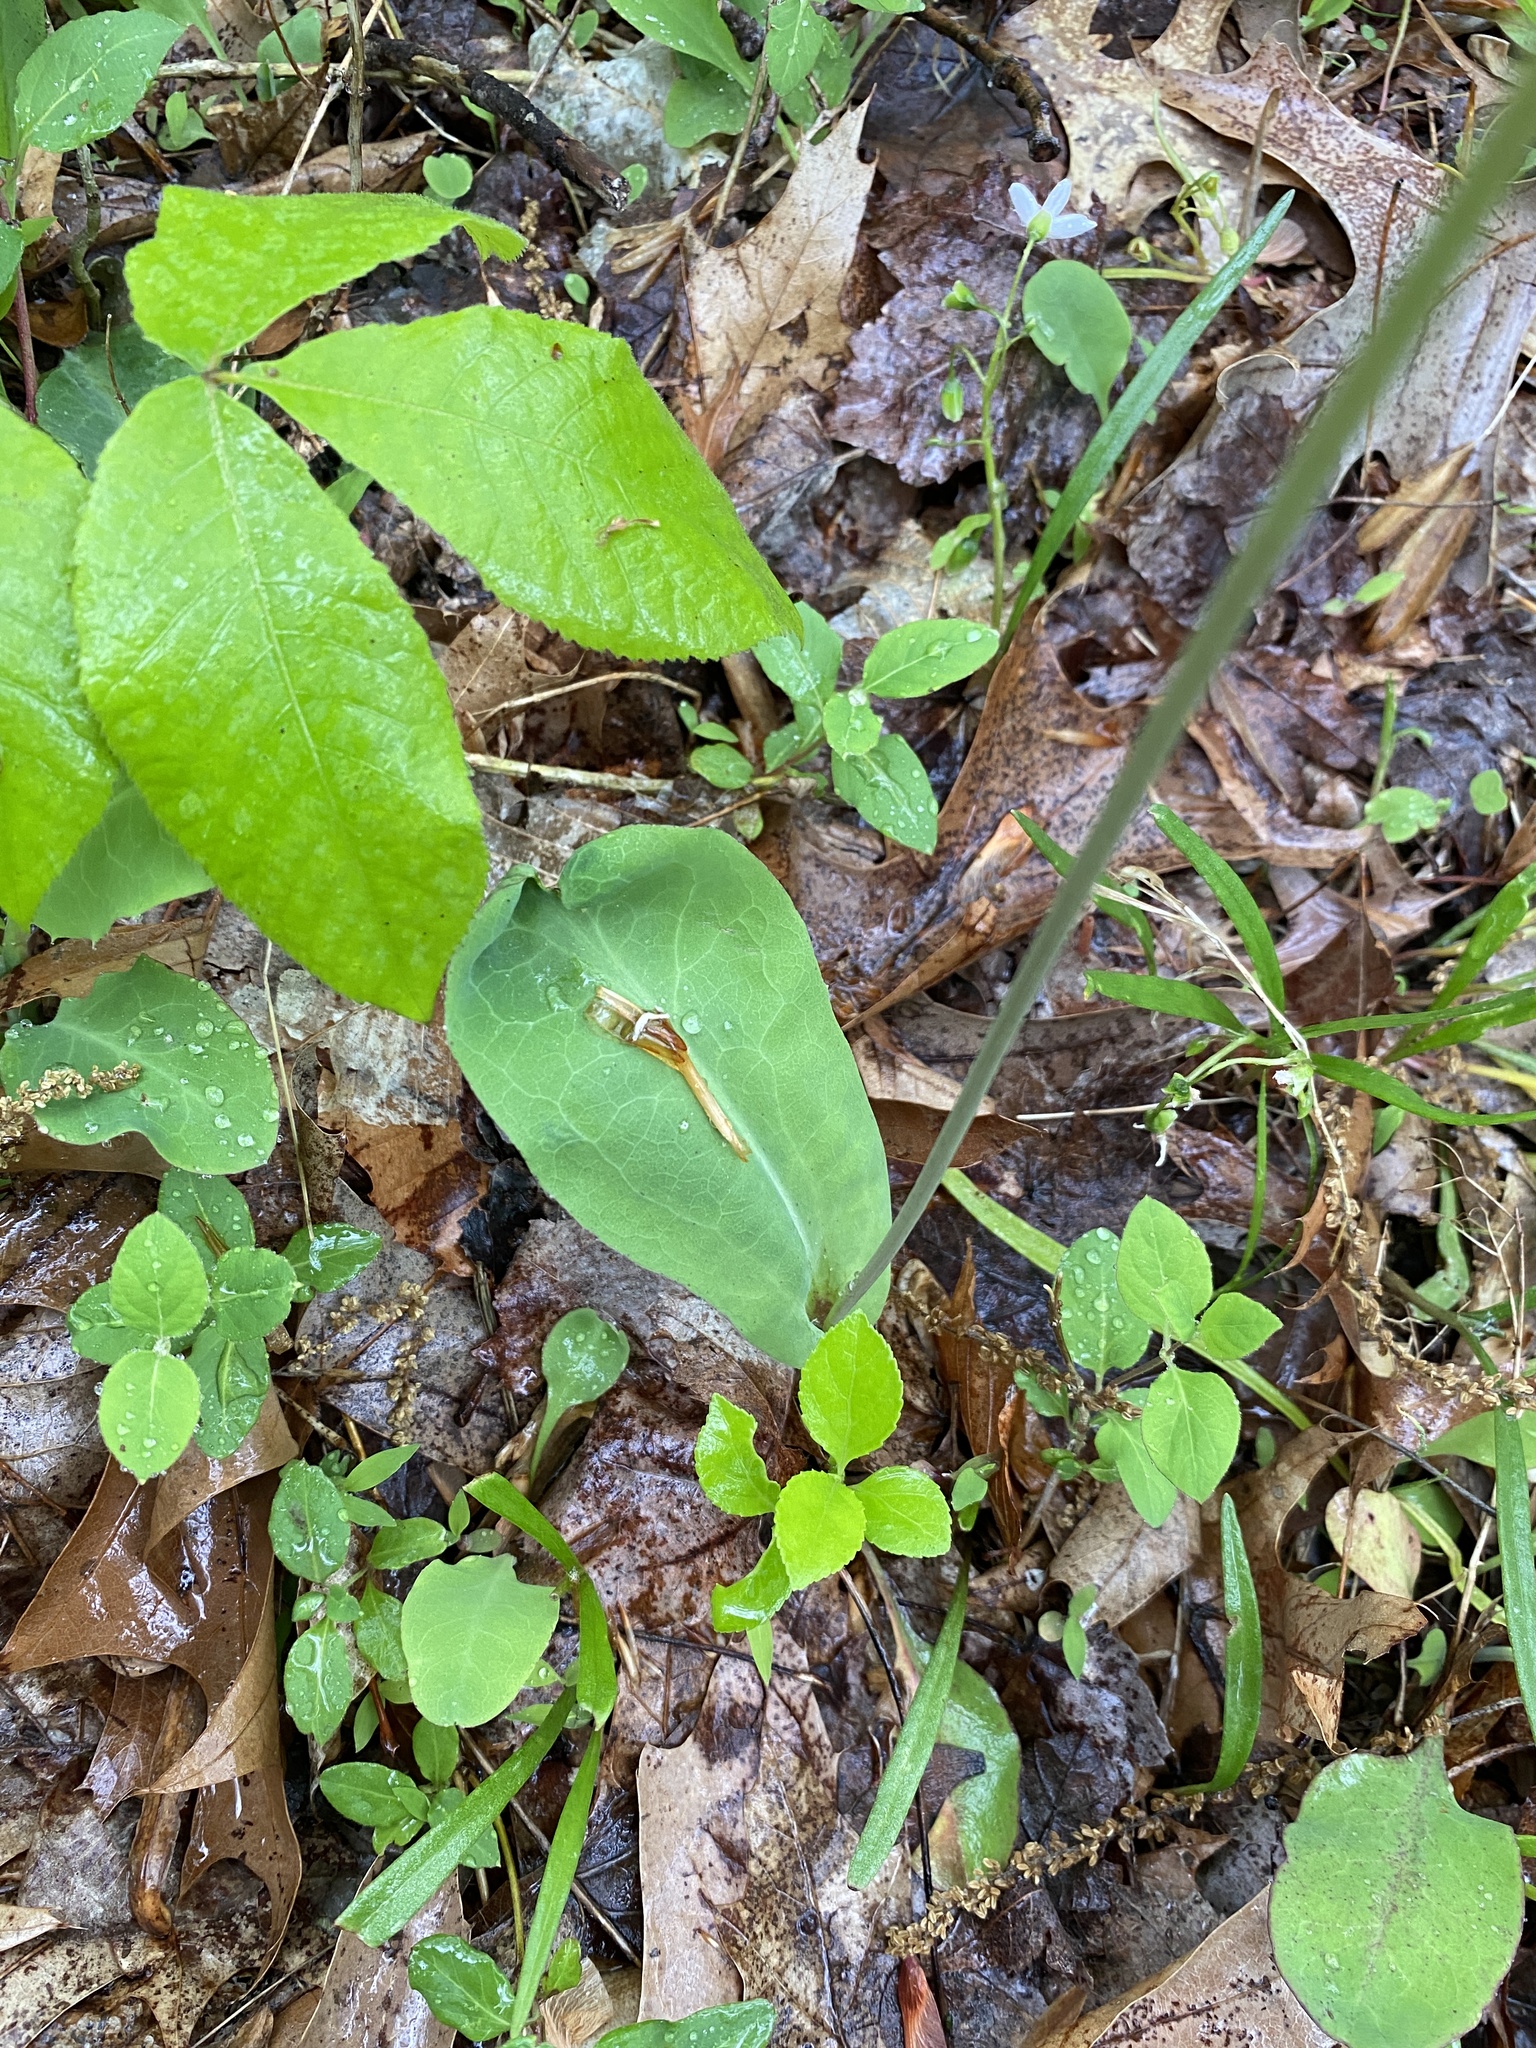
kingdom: Plantae
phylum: Tracheophyta
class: Magnoliopsida
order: Asterales
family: Asteraceae
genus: Krigia
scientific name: Krigia biflora
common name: Orange dwarf-dandelion
